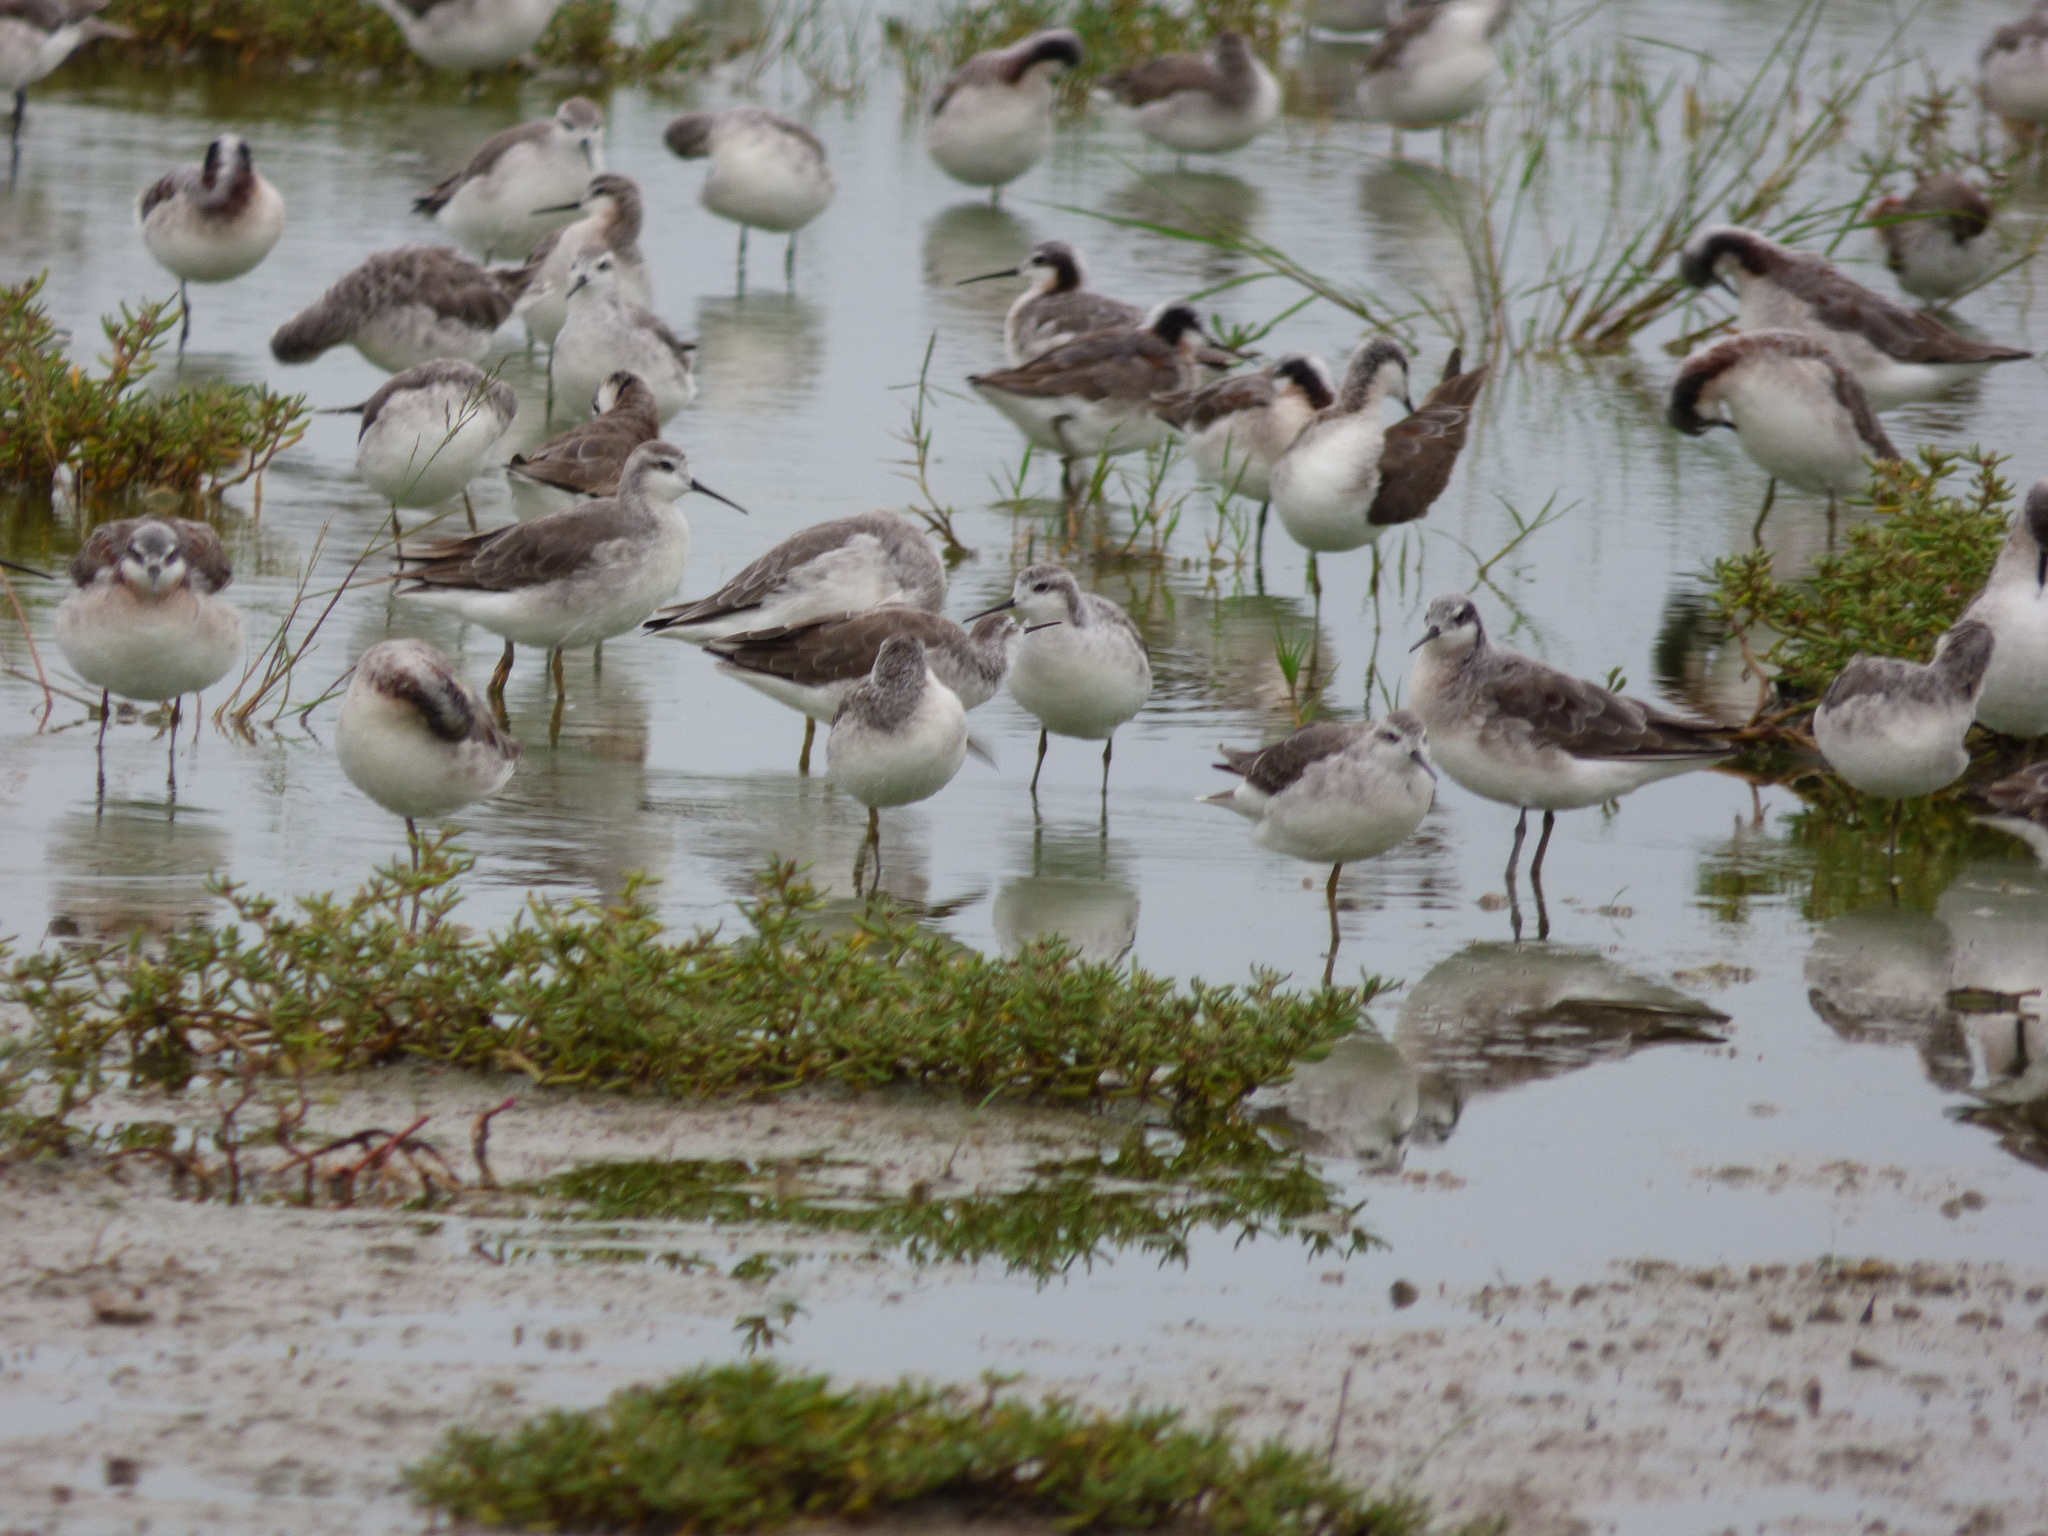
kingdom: Animalia
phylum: Chordata
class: Aves
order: Charadriiformes
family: Scolopacidae
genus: Phalaropus
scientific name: Phalaropus tricolor
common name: Wilson's phalarope
